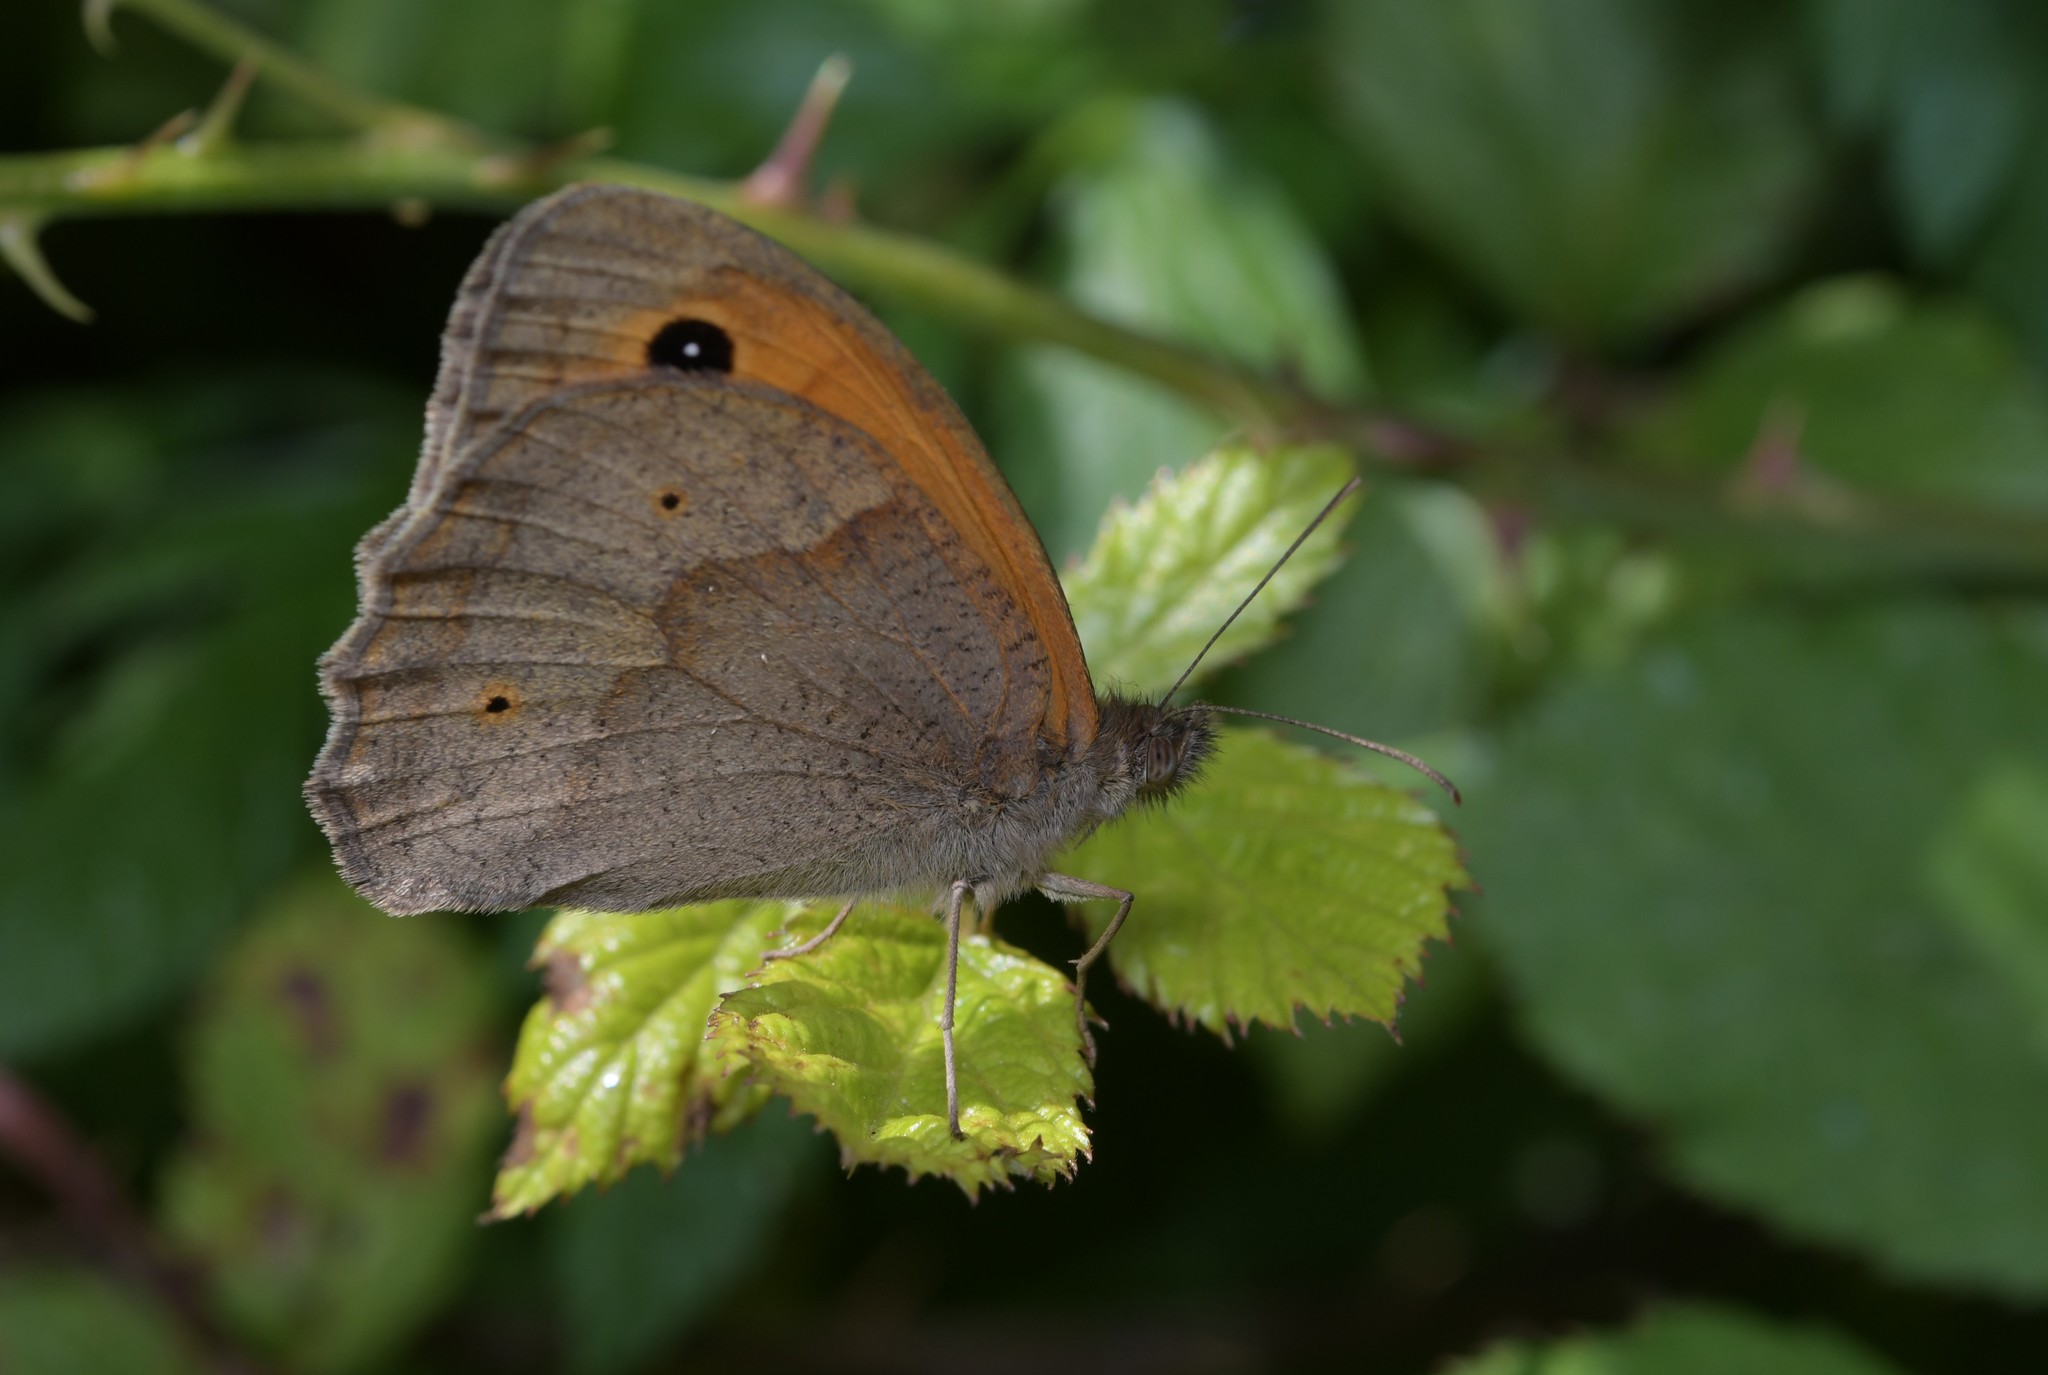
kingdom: Animalia
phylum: Arthropoda
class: Insecta
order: Lepidoptera
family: Nymphalidae
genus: Maniola
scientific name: Maniola jurtina
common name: Meadow brown
